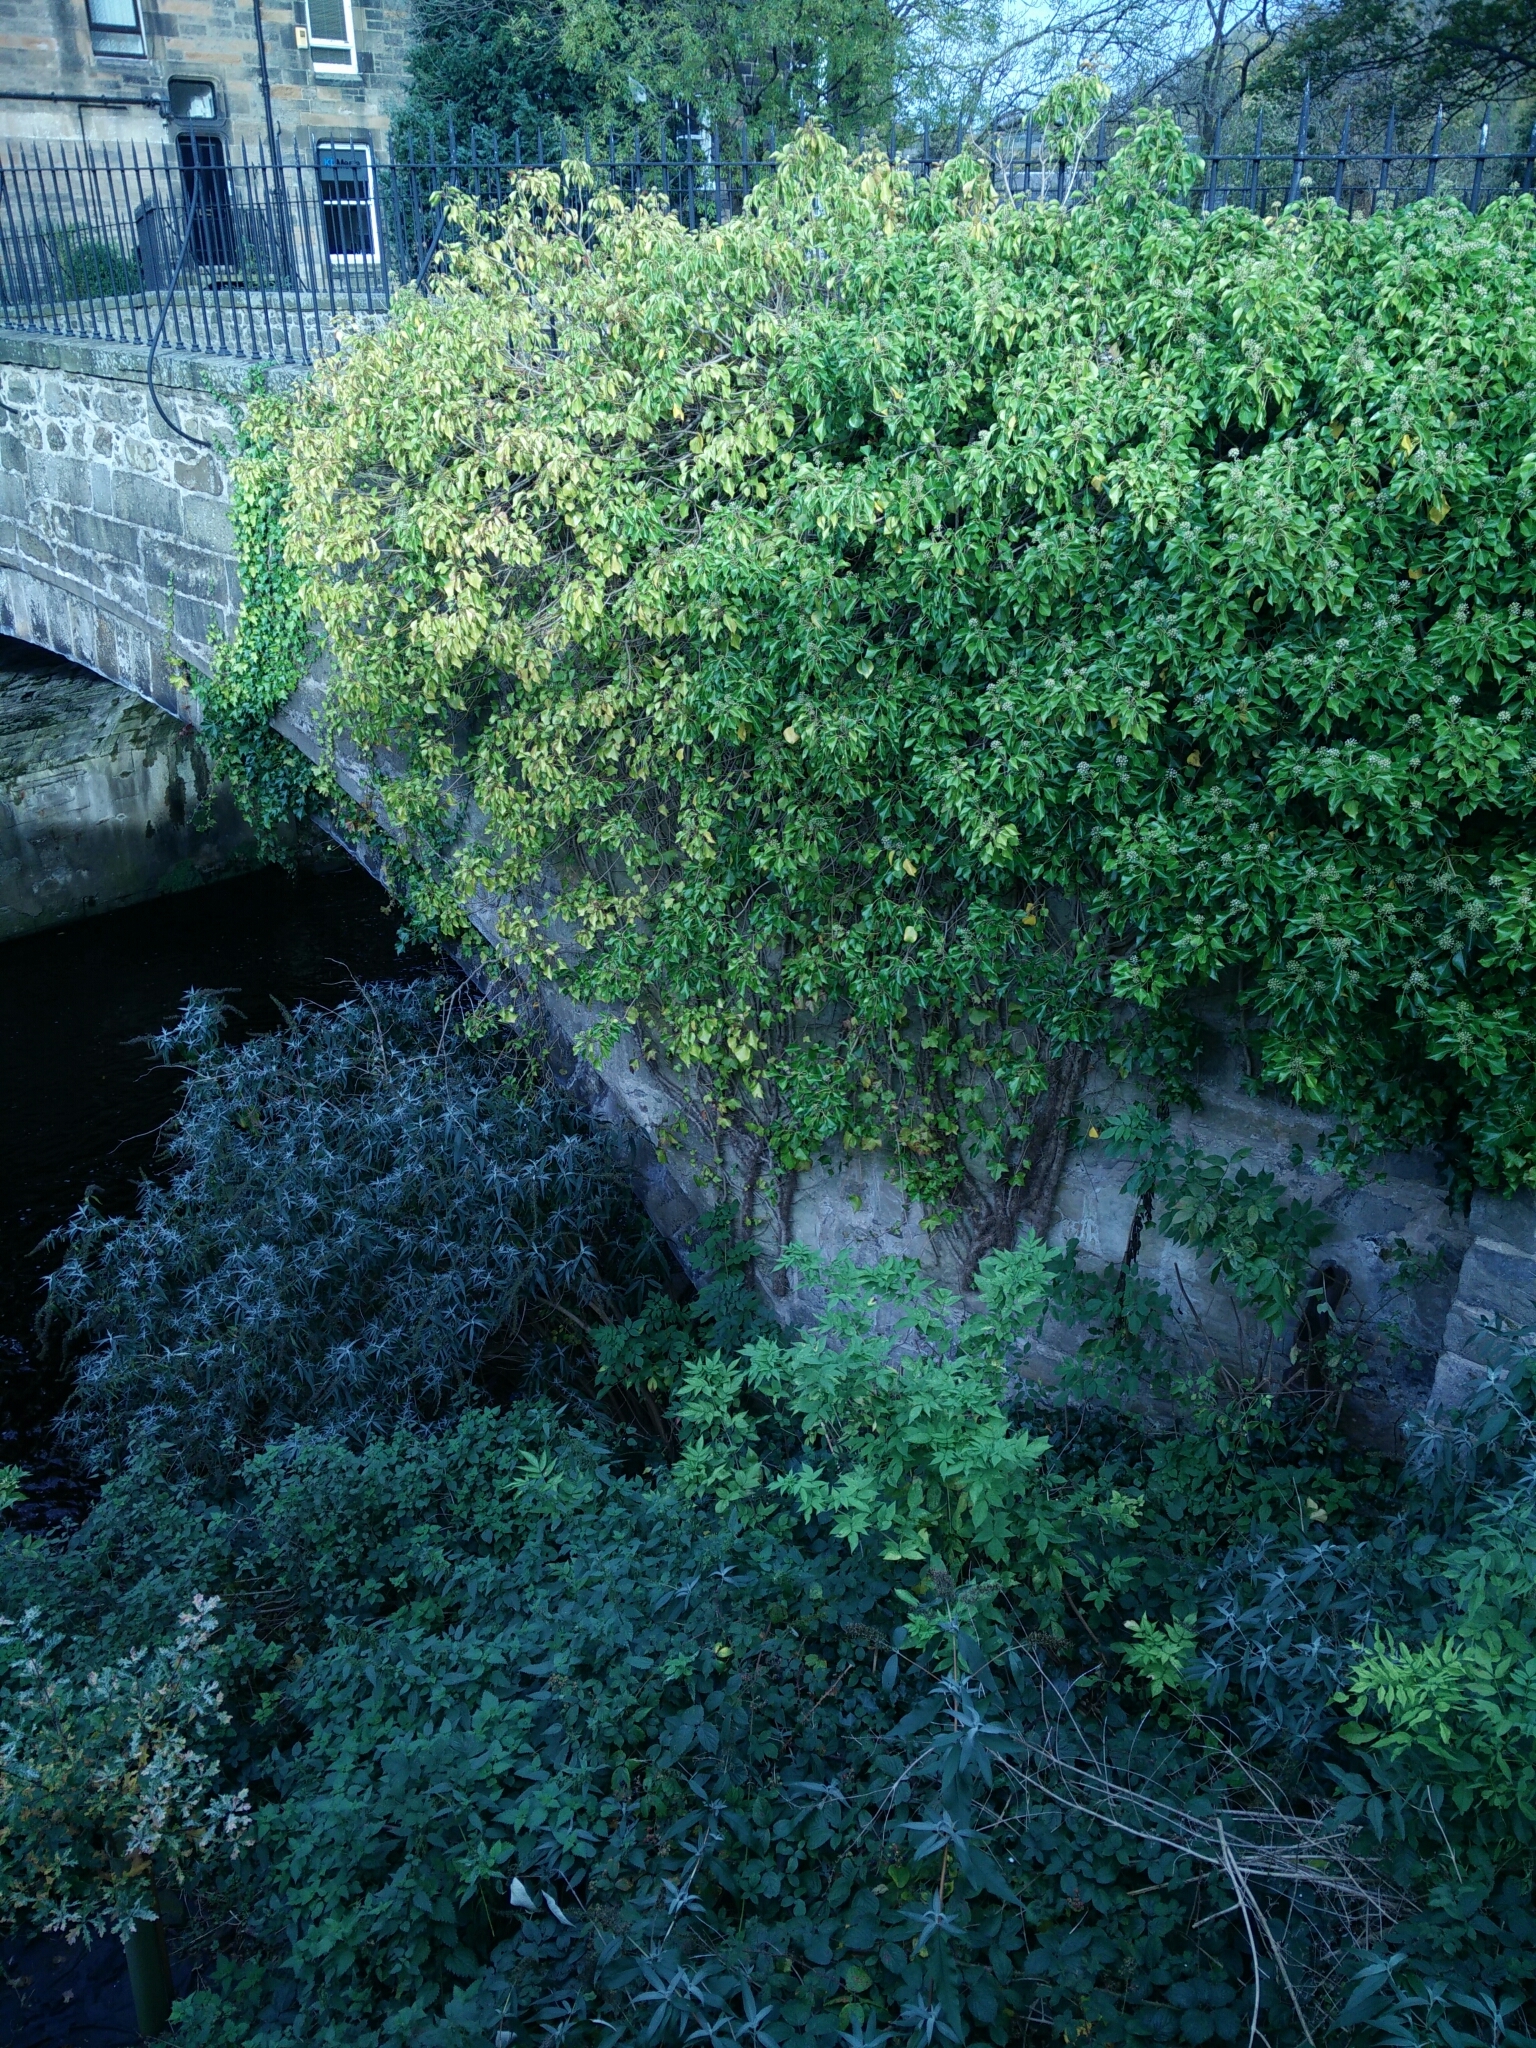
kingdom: Plantae
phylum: Tracheophyta
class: Magnoliopsida
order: Apiales
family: Araliaceae
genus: Hedera
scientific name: Hedera helix
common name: Ivy
